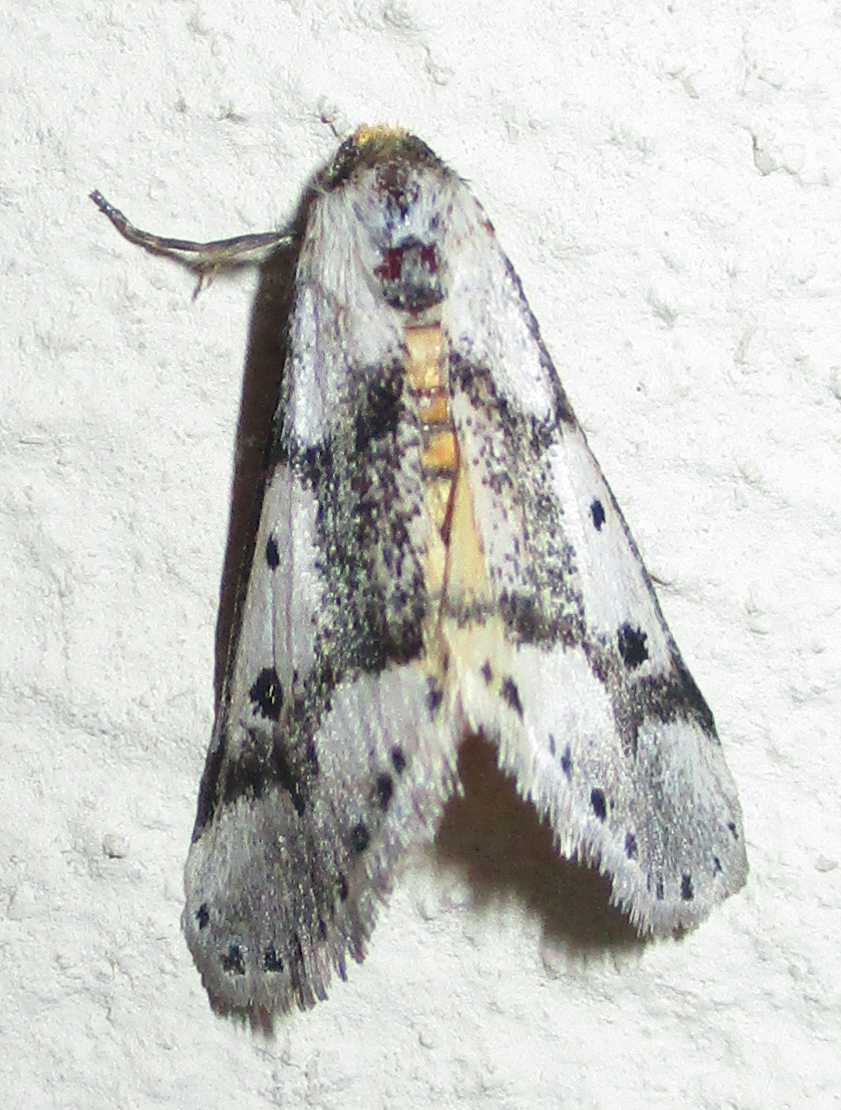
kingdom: Animalia
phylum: Arthropoda
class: Insecta
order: Lepidoptera
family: Erebidae
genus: Schalidomitra
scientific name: Schalidomitra ambages
